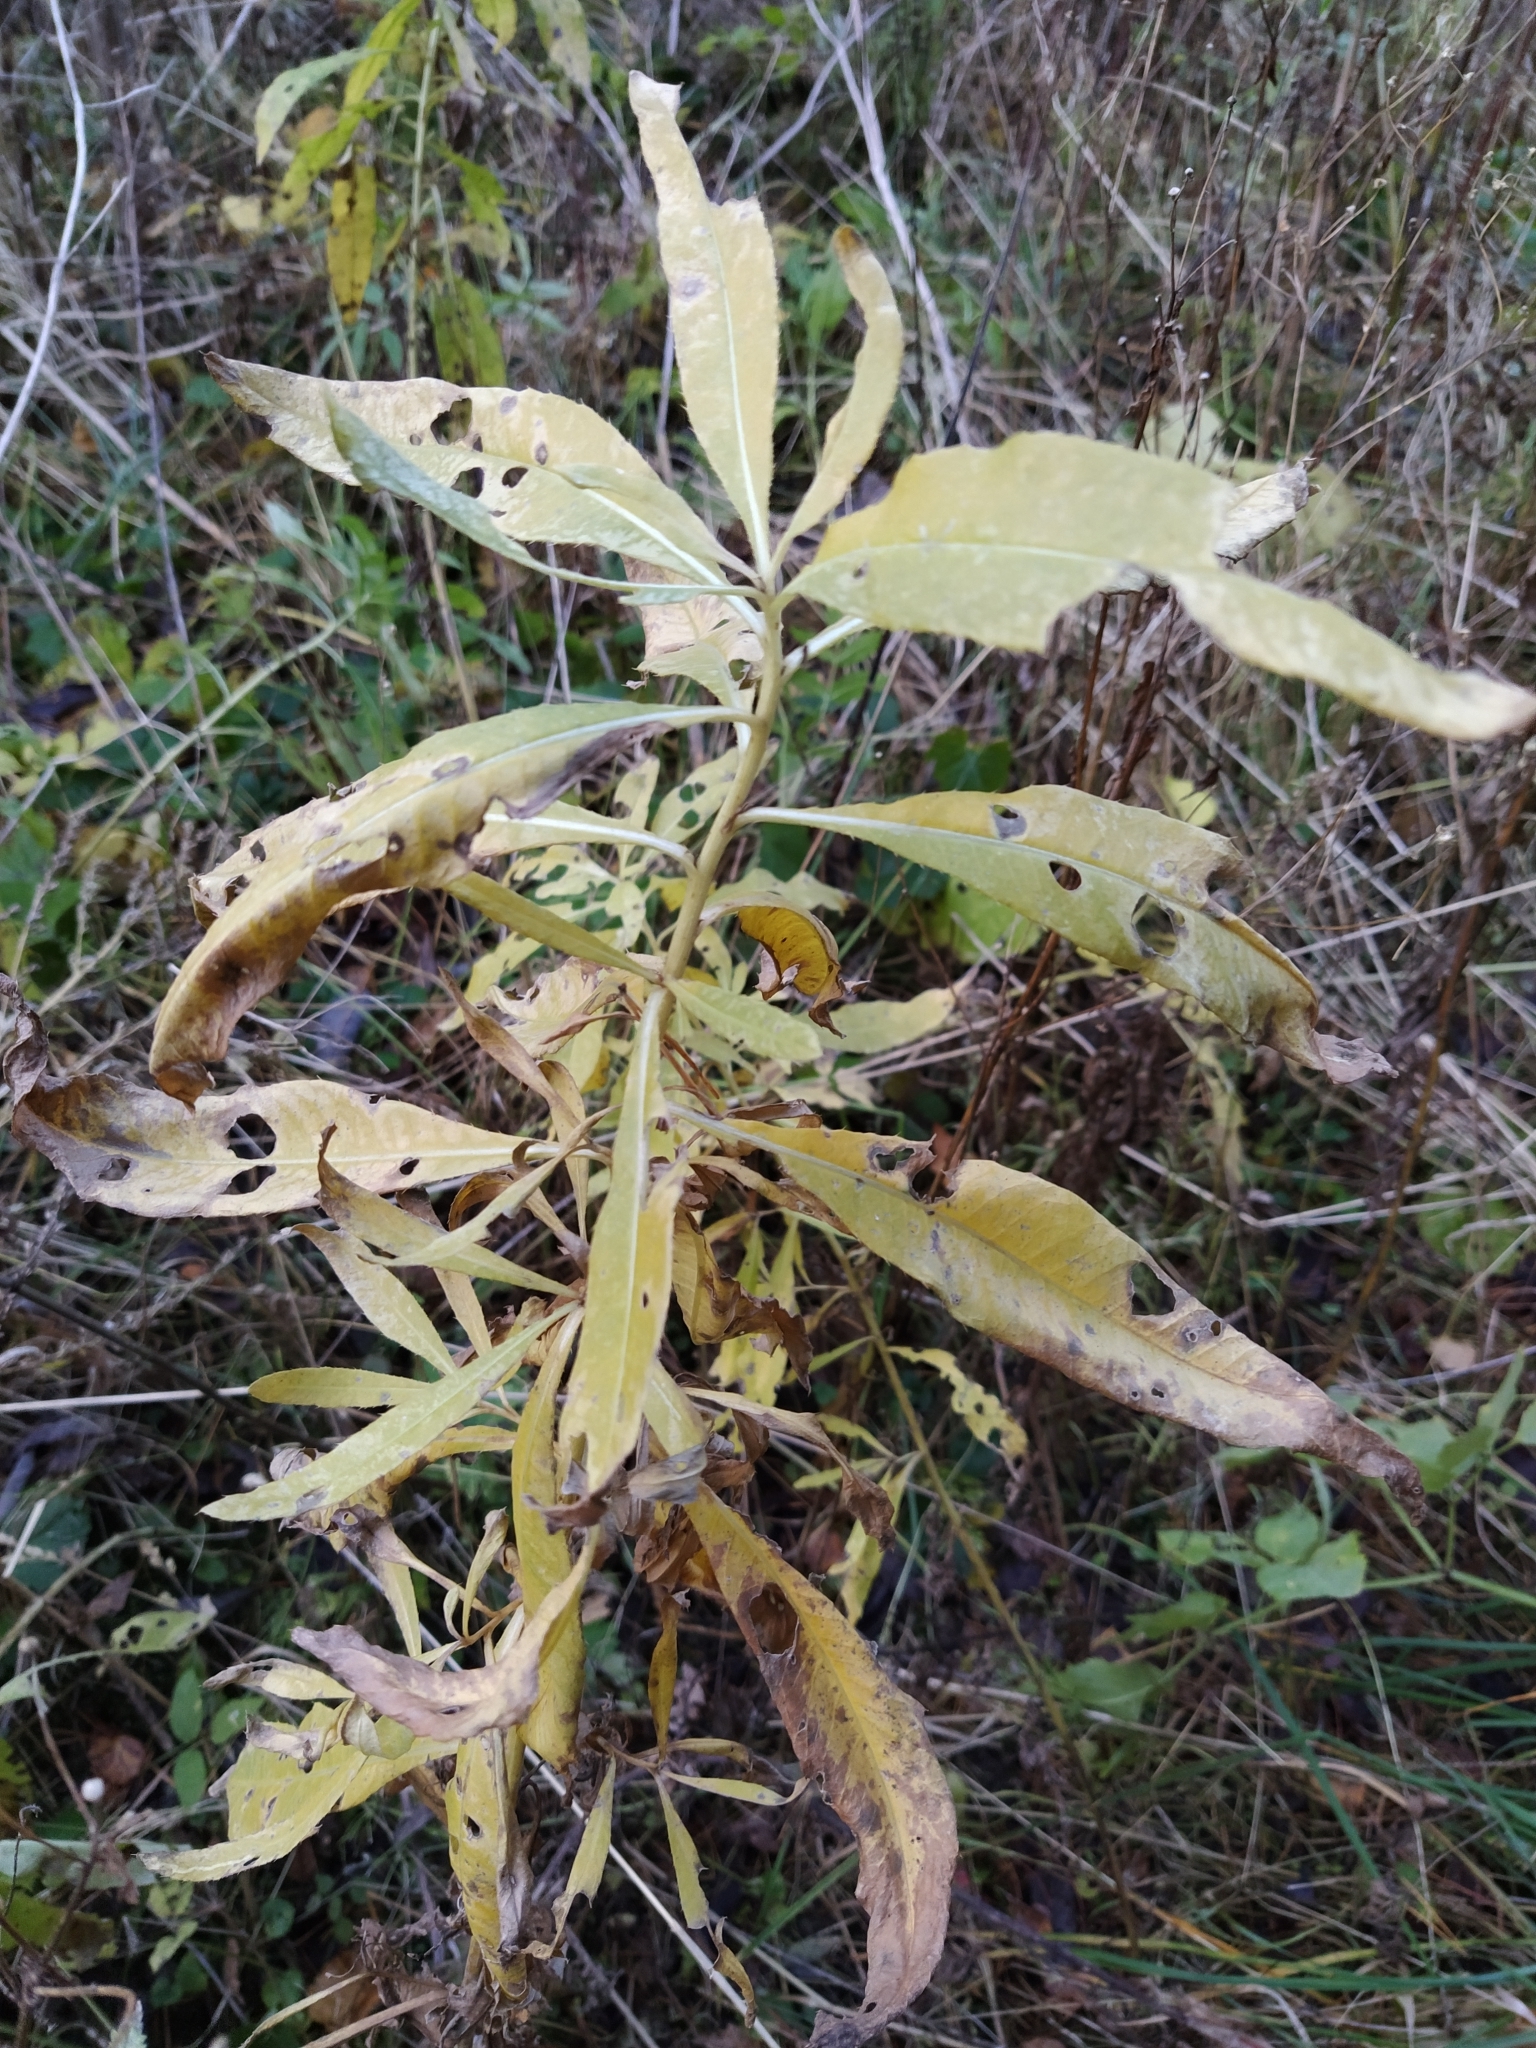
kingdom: Plantae
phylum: Tracheophyta
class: Magnoliopsida
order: Asterales
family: Asteraceae
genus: Cirsium
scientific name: Cirsium arvense
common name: Creeping thistle
